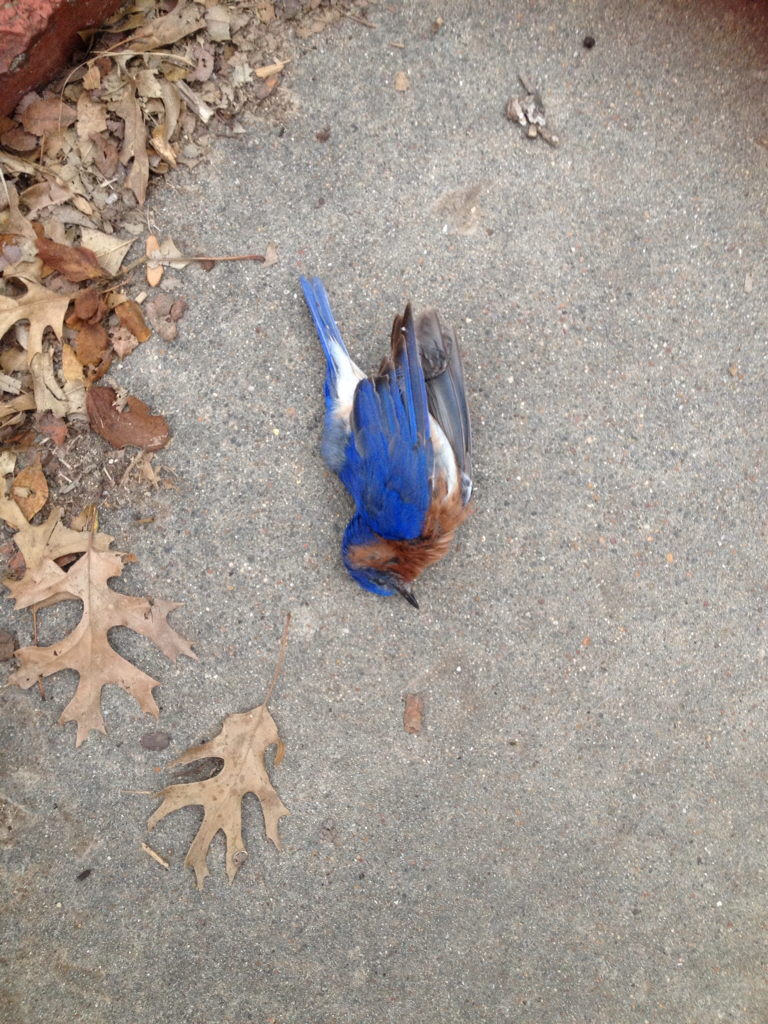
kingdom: Animalia
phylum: Chordata
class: Aves
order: Passeriformes
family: Turdidae
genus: Sialia
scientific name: Sialia sialis
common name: Eastern bluebird
